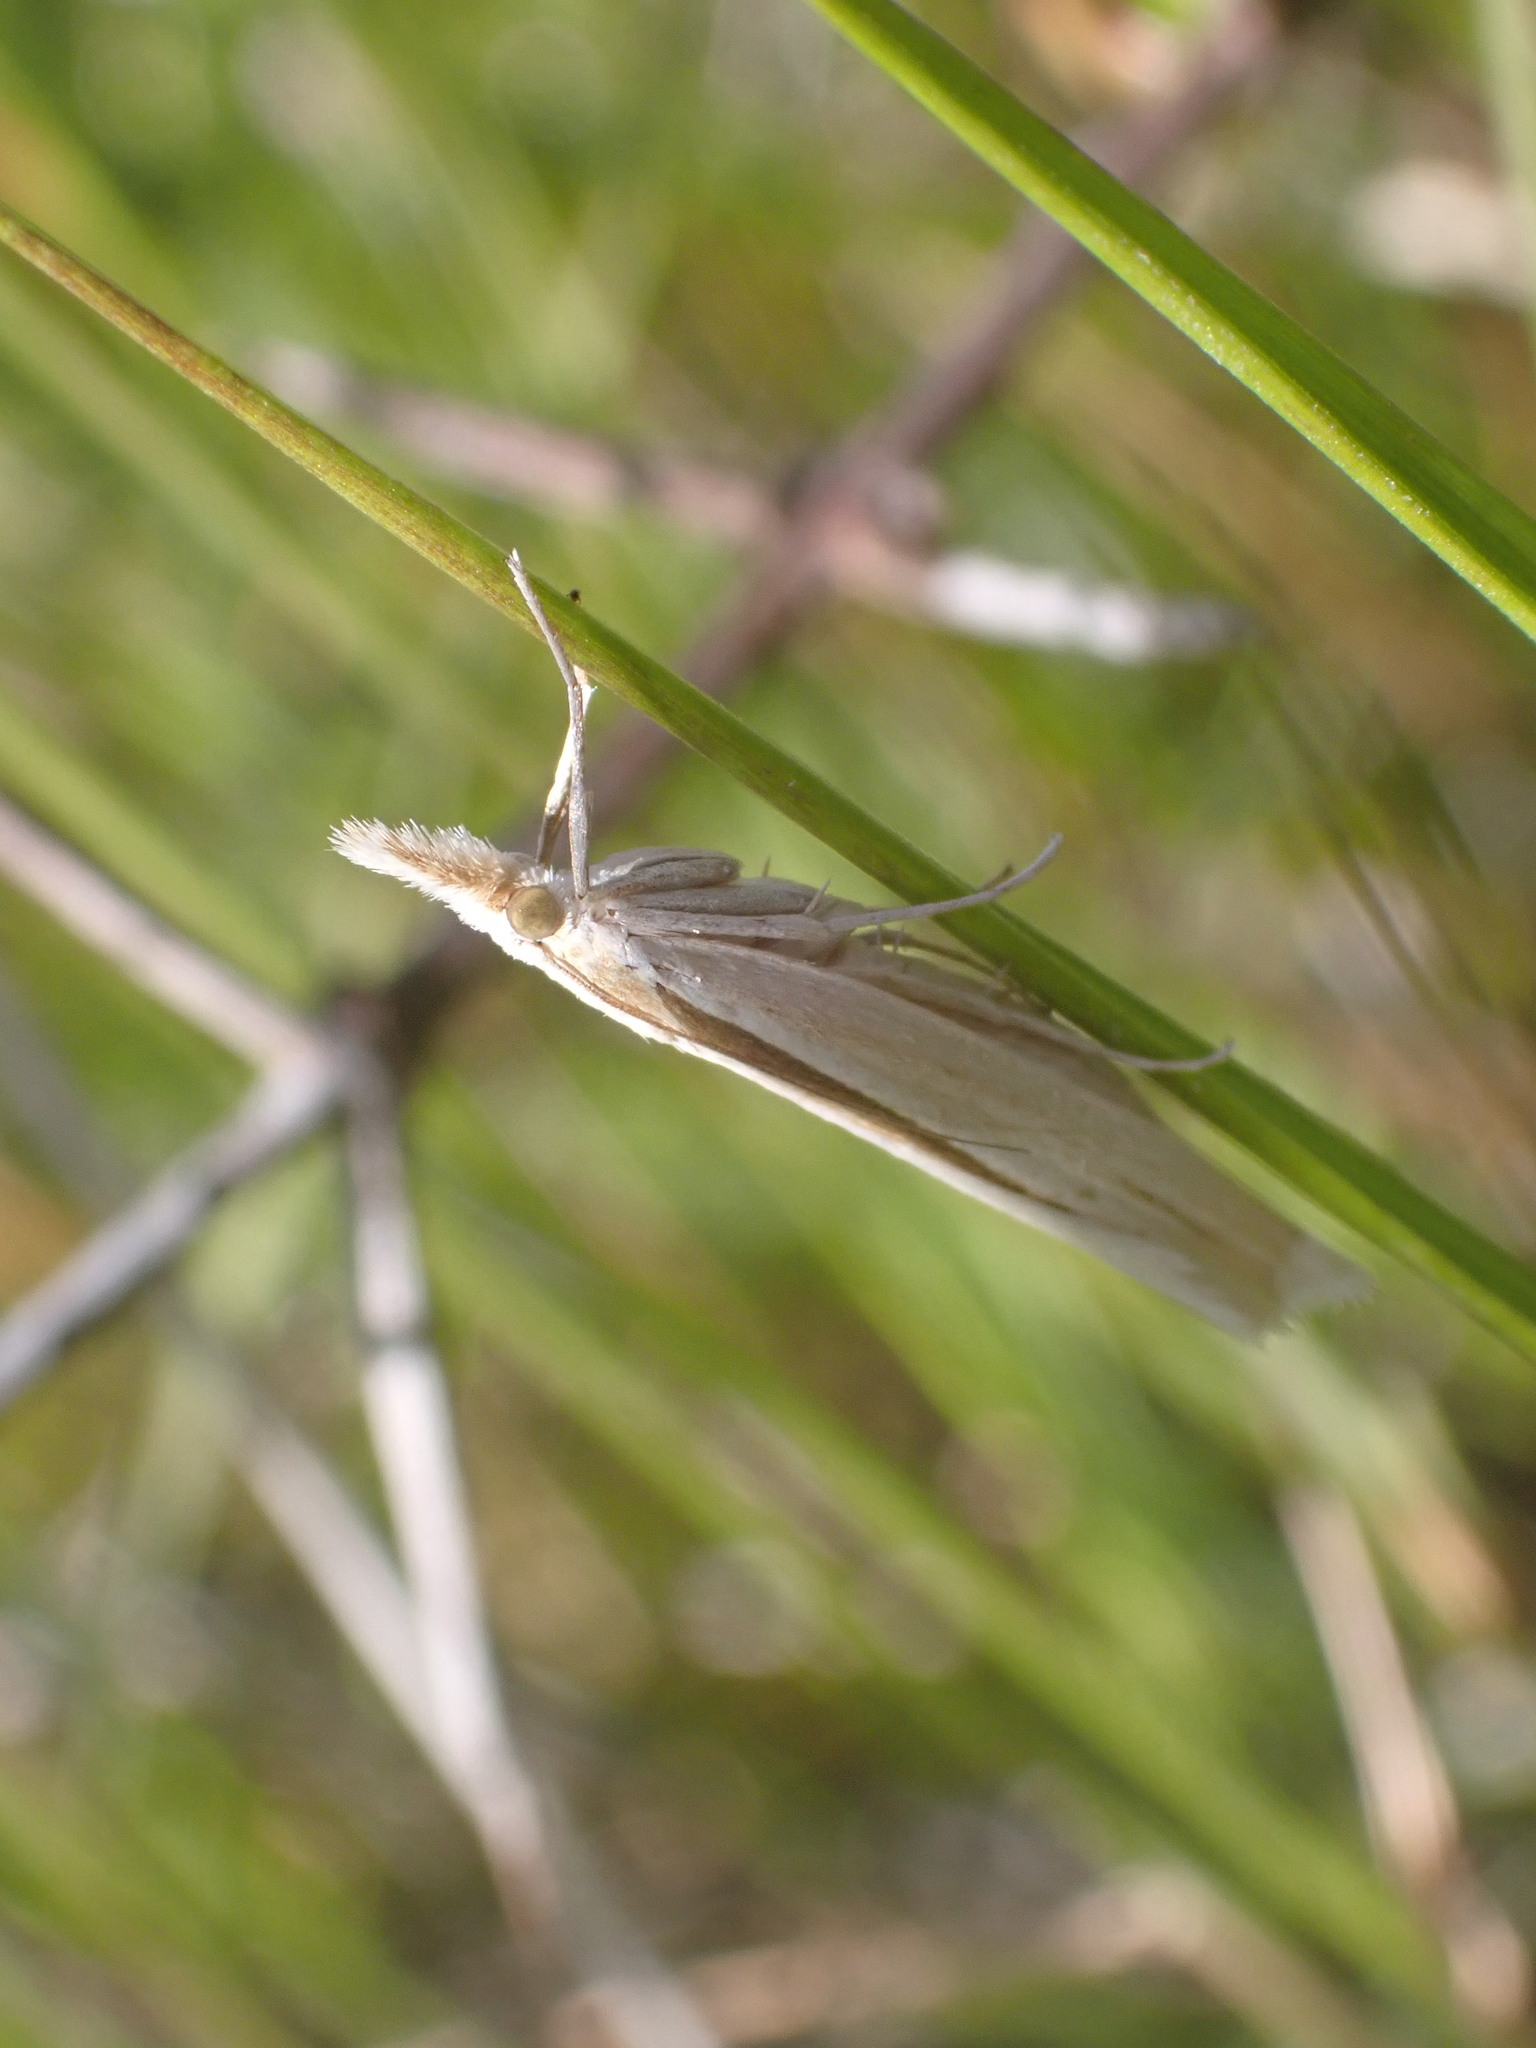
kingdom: Animalia
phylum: Arthropoda
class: Insecta
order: Lepidoptera
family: Crambidae
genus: Orocrambus
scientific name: Orocrambus ramosellus
